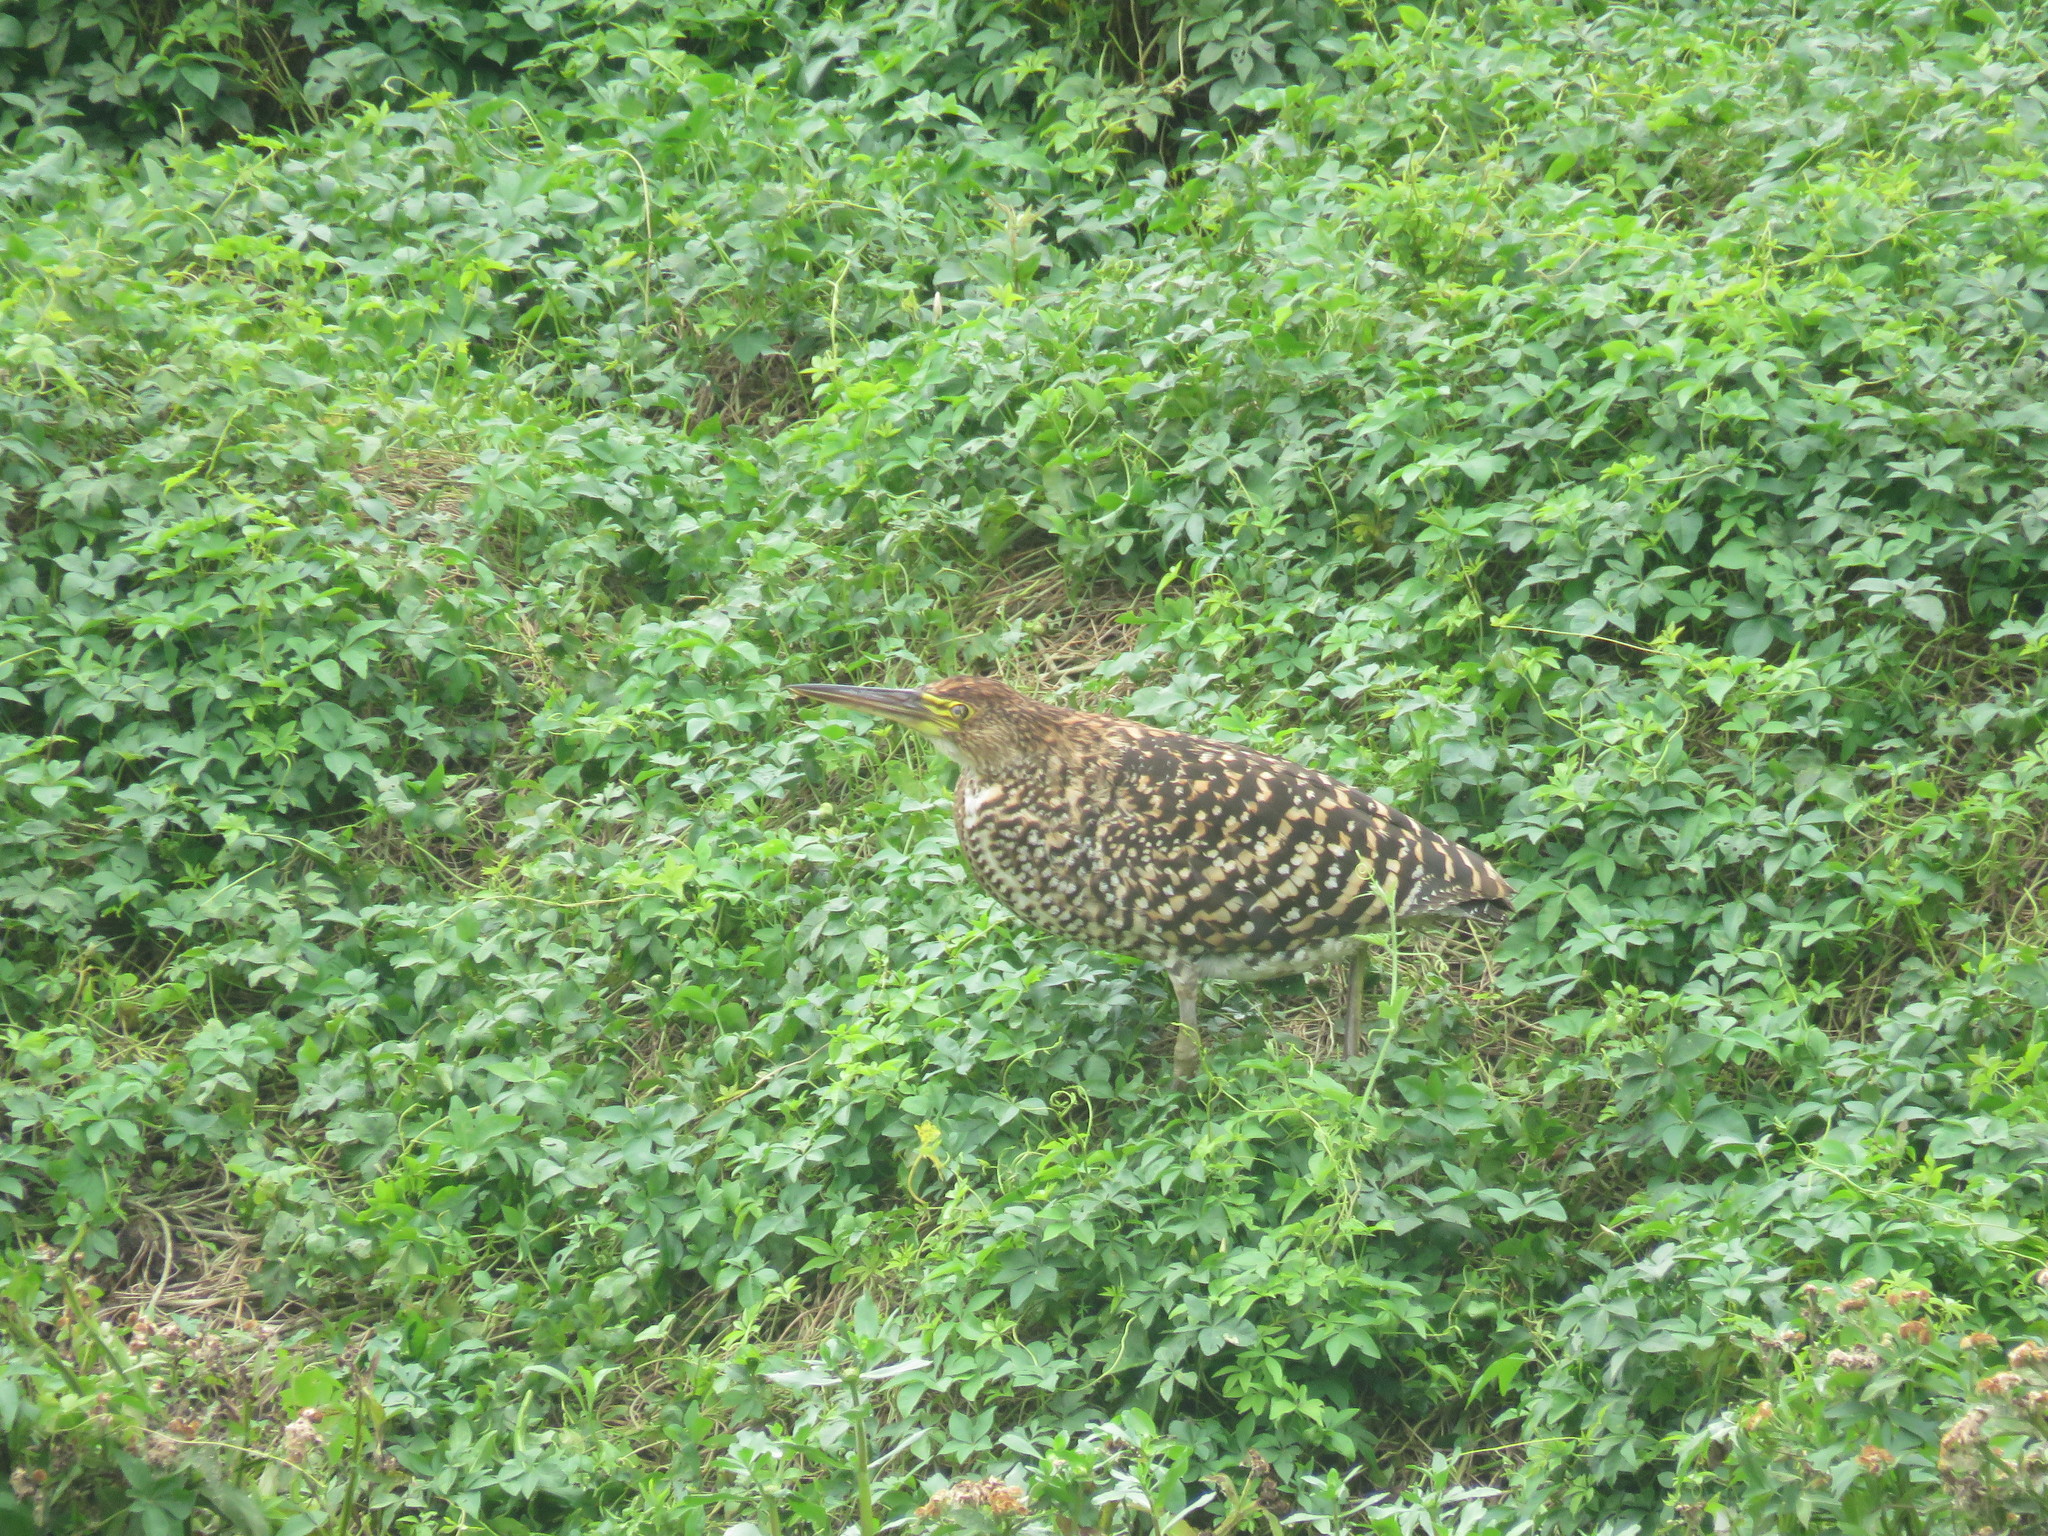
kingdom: Animalia
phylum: Chordata
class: Aves
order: Pelecaniformes
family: Ardeidae
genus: Tigrisoma
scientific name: Tigrisoma lineatum
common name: Rufescent tiger-heron
